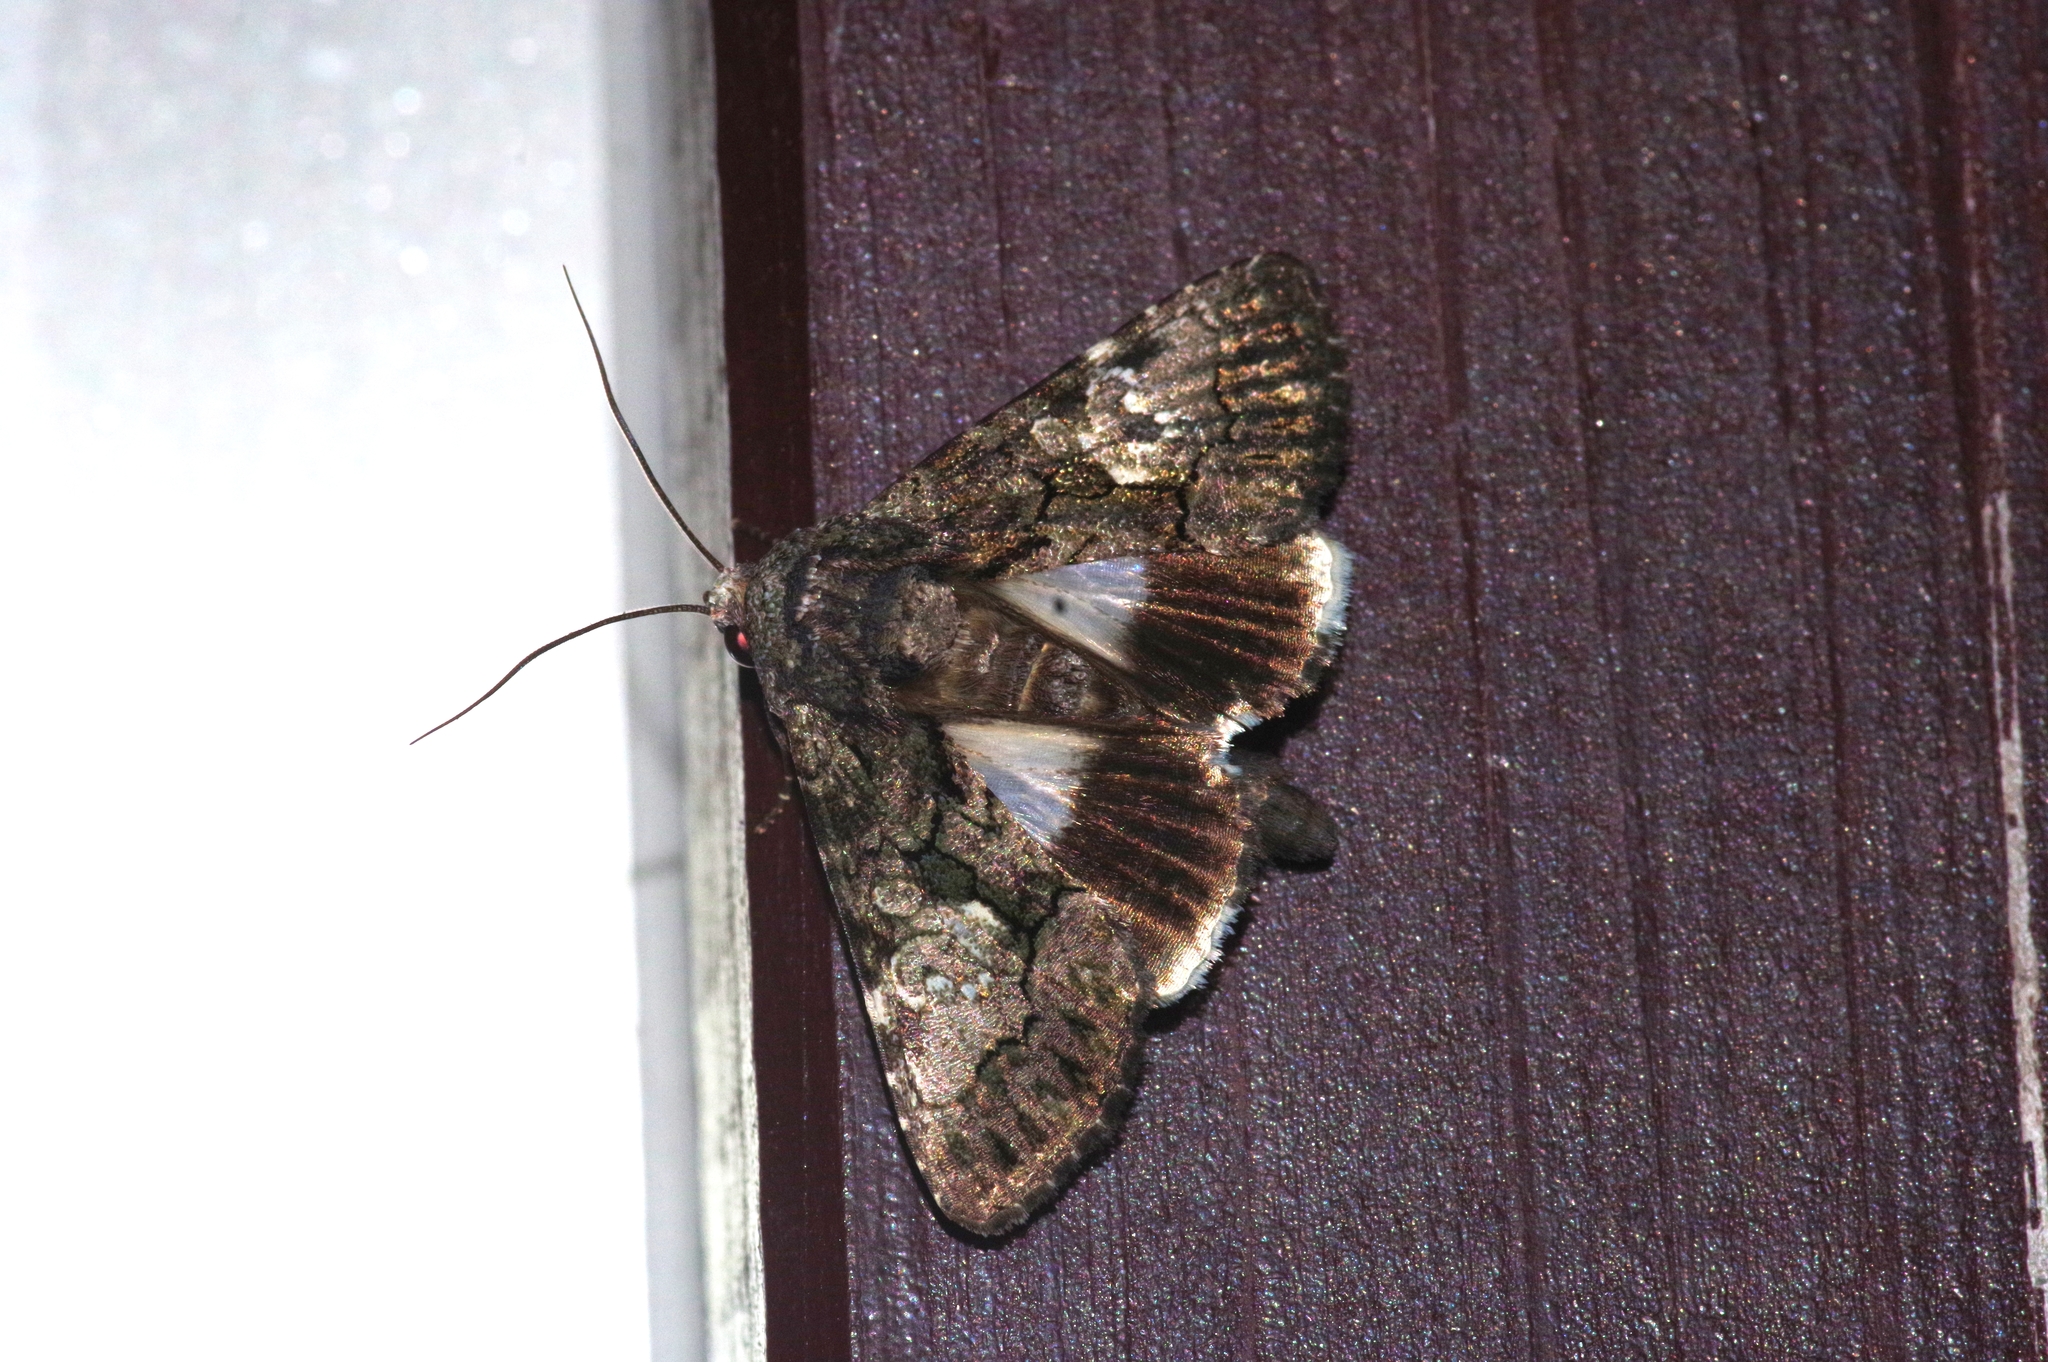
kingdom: Animalia
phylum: Arthropoda
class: Insecta
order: Lepidoptera
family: Noctuidae
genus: Aedia
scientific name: Aedia leucomelas
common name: Sorcerer
